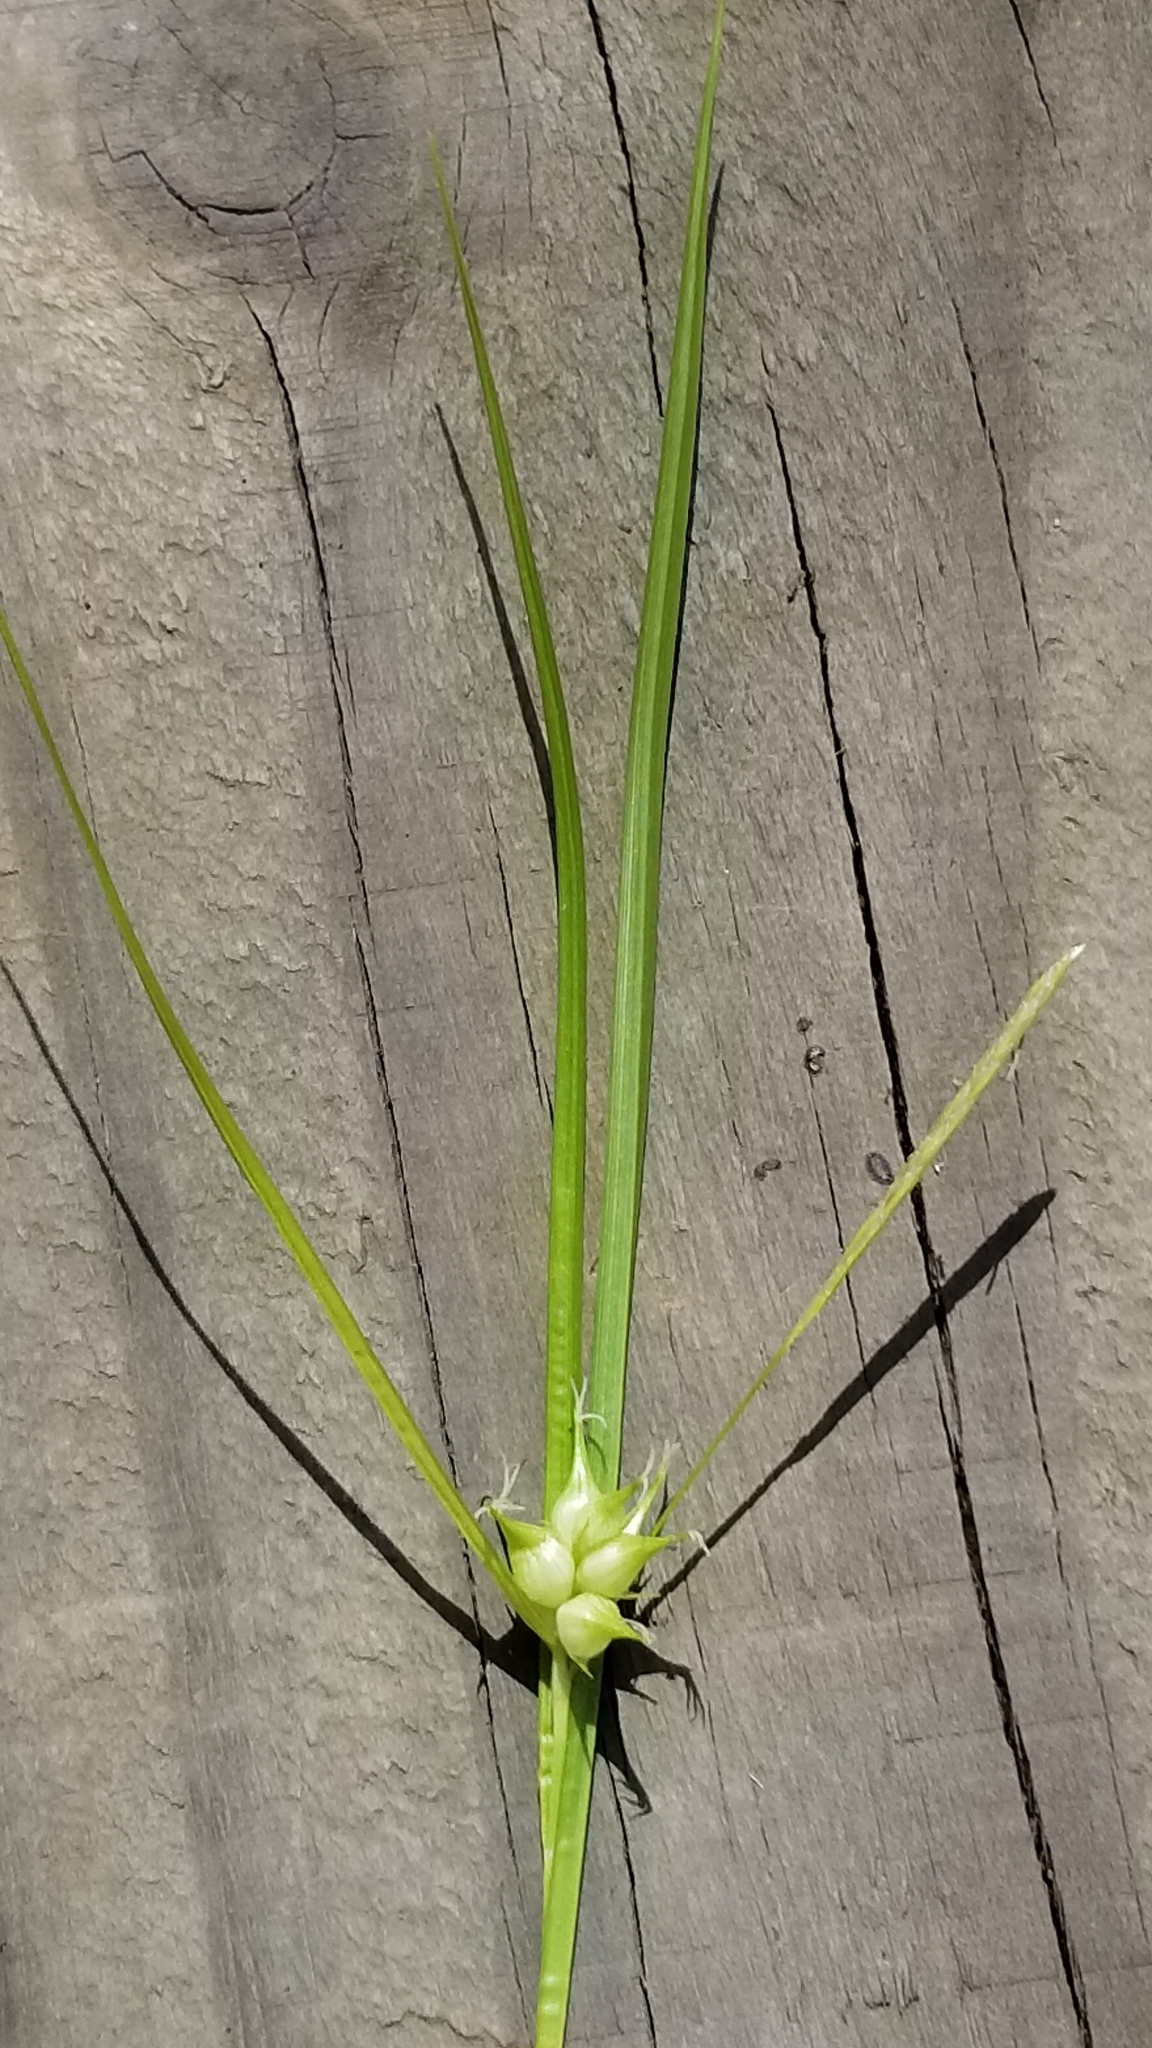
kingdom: Plantae
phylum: Tracheophyta
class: Liliopsida
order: Poales
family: Cyperaceae
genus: Carex
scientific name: Carex intumescens
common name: Greater bladder sedge
